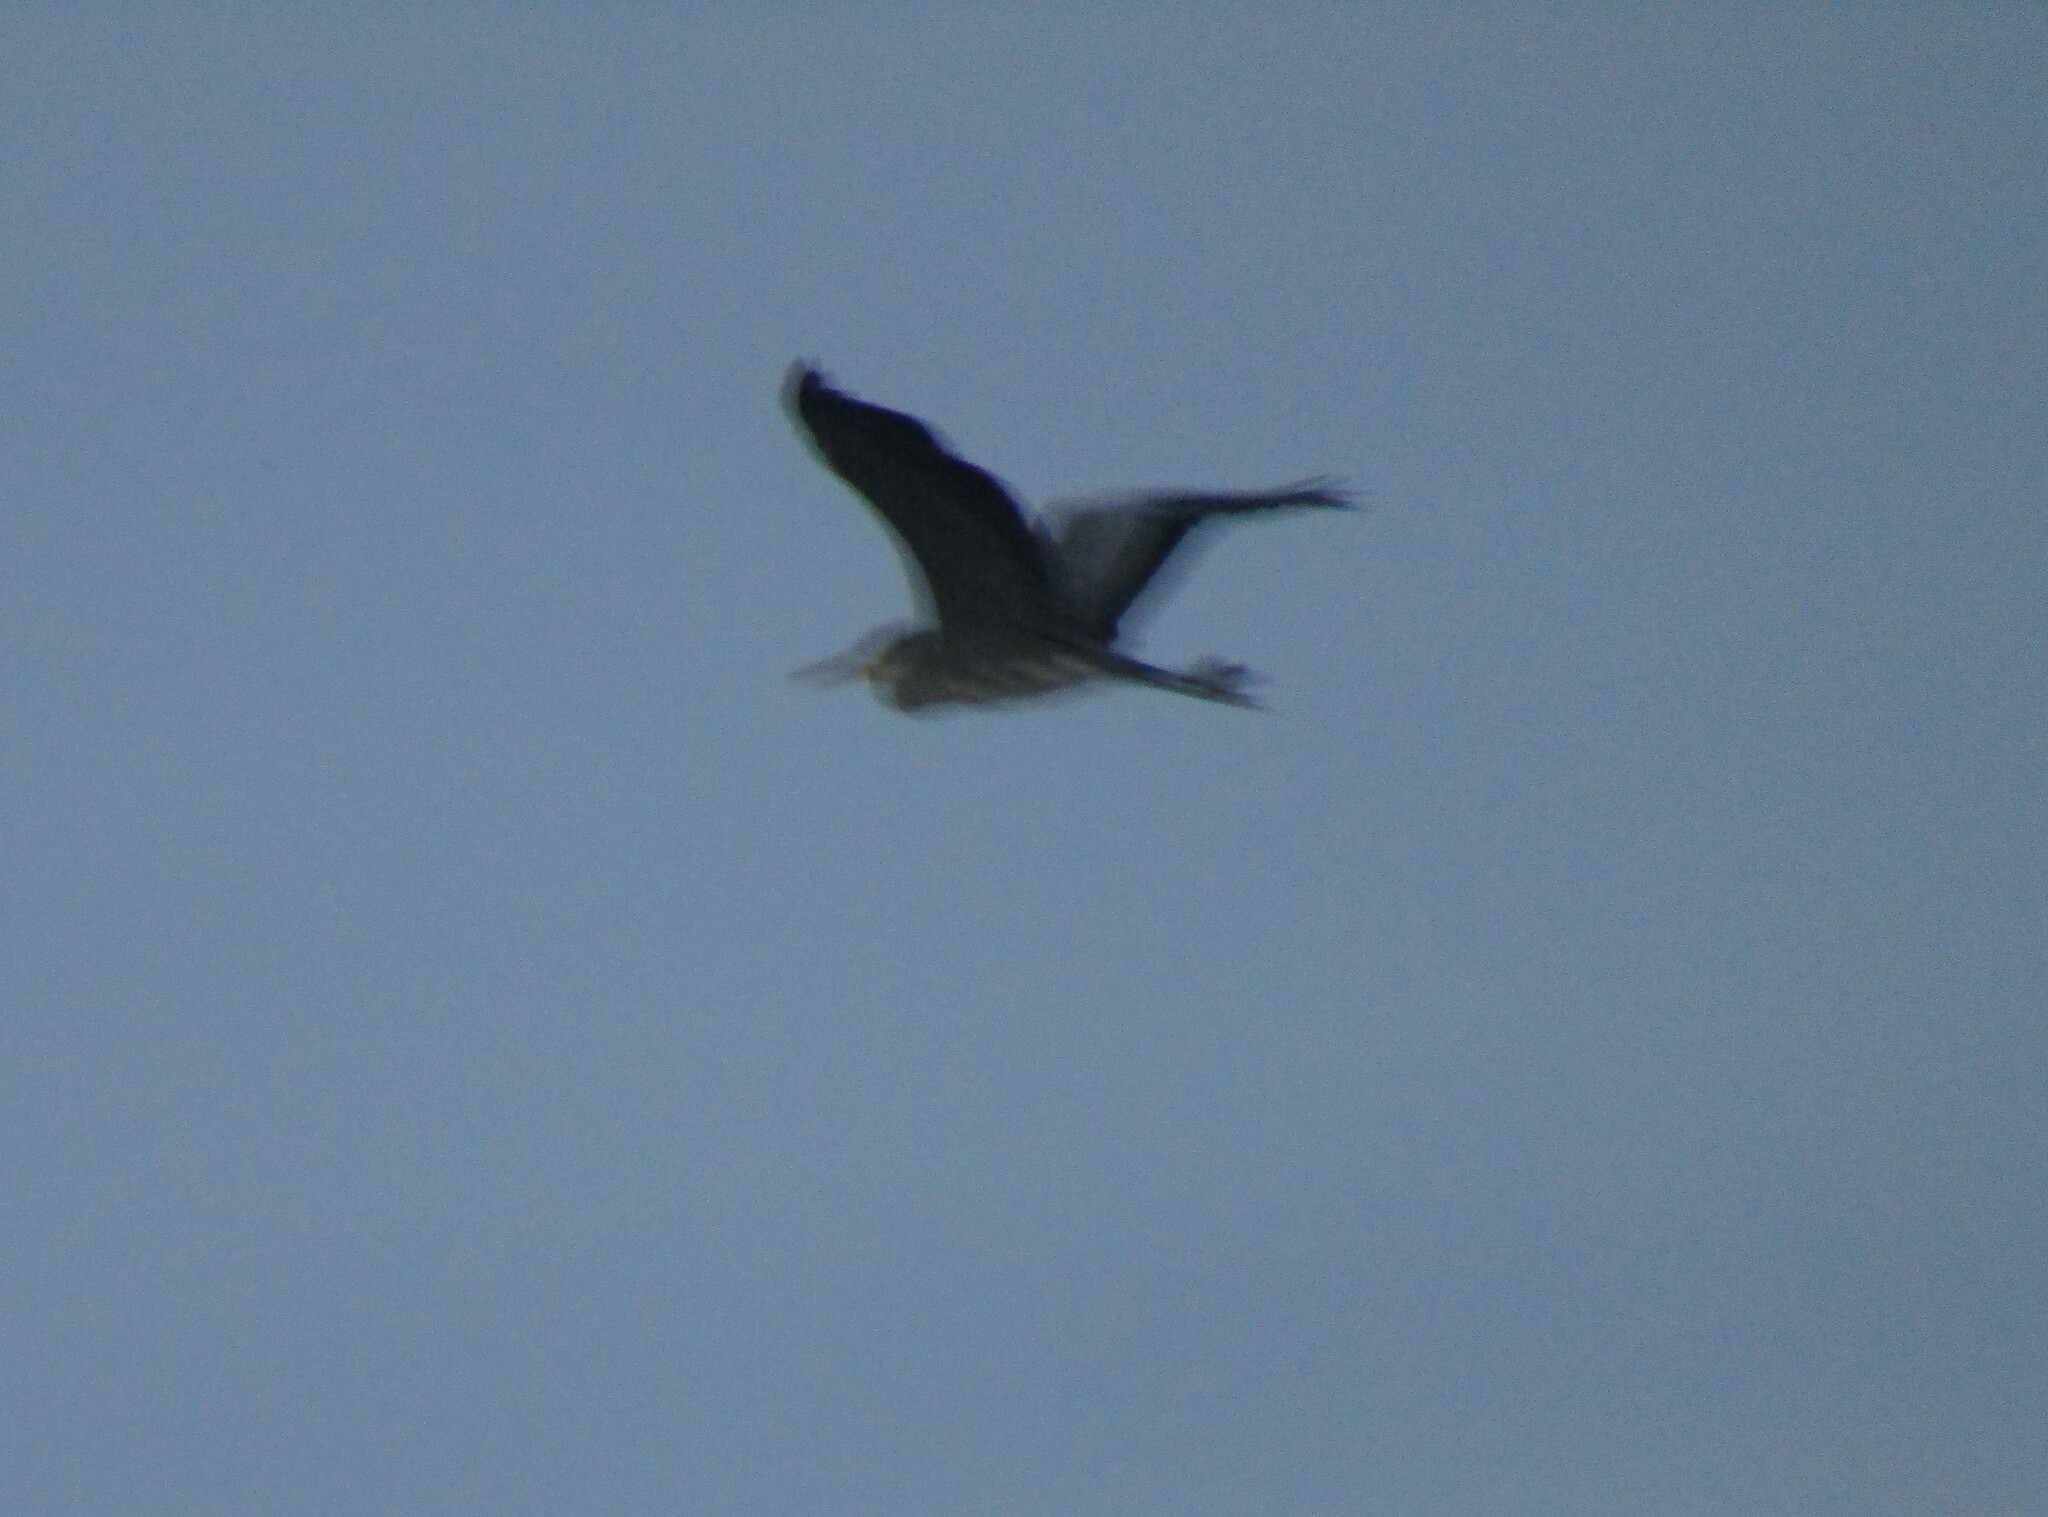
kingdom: Animalia
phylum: Chordata
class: Aves
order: Pelecaniformes
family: Ardeidae
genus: Ardea
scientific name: Ardea cinerea
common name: Grey heron
